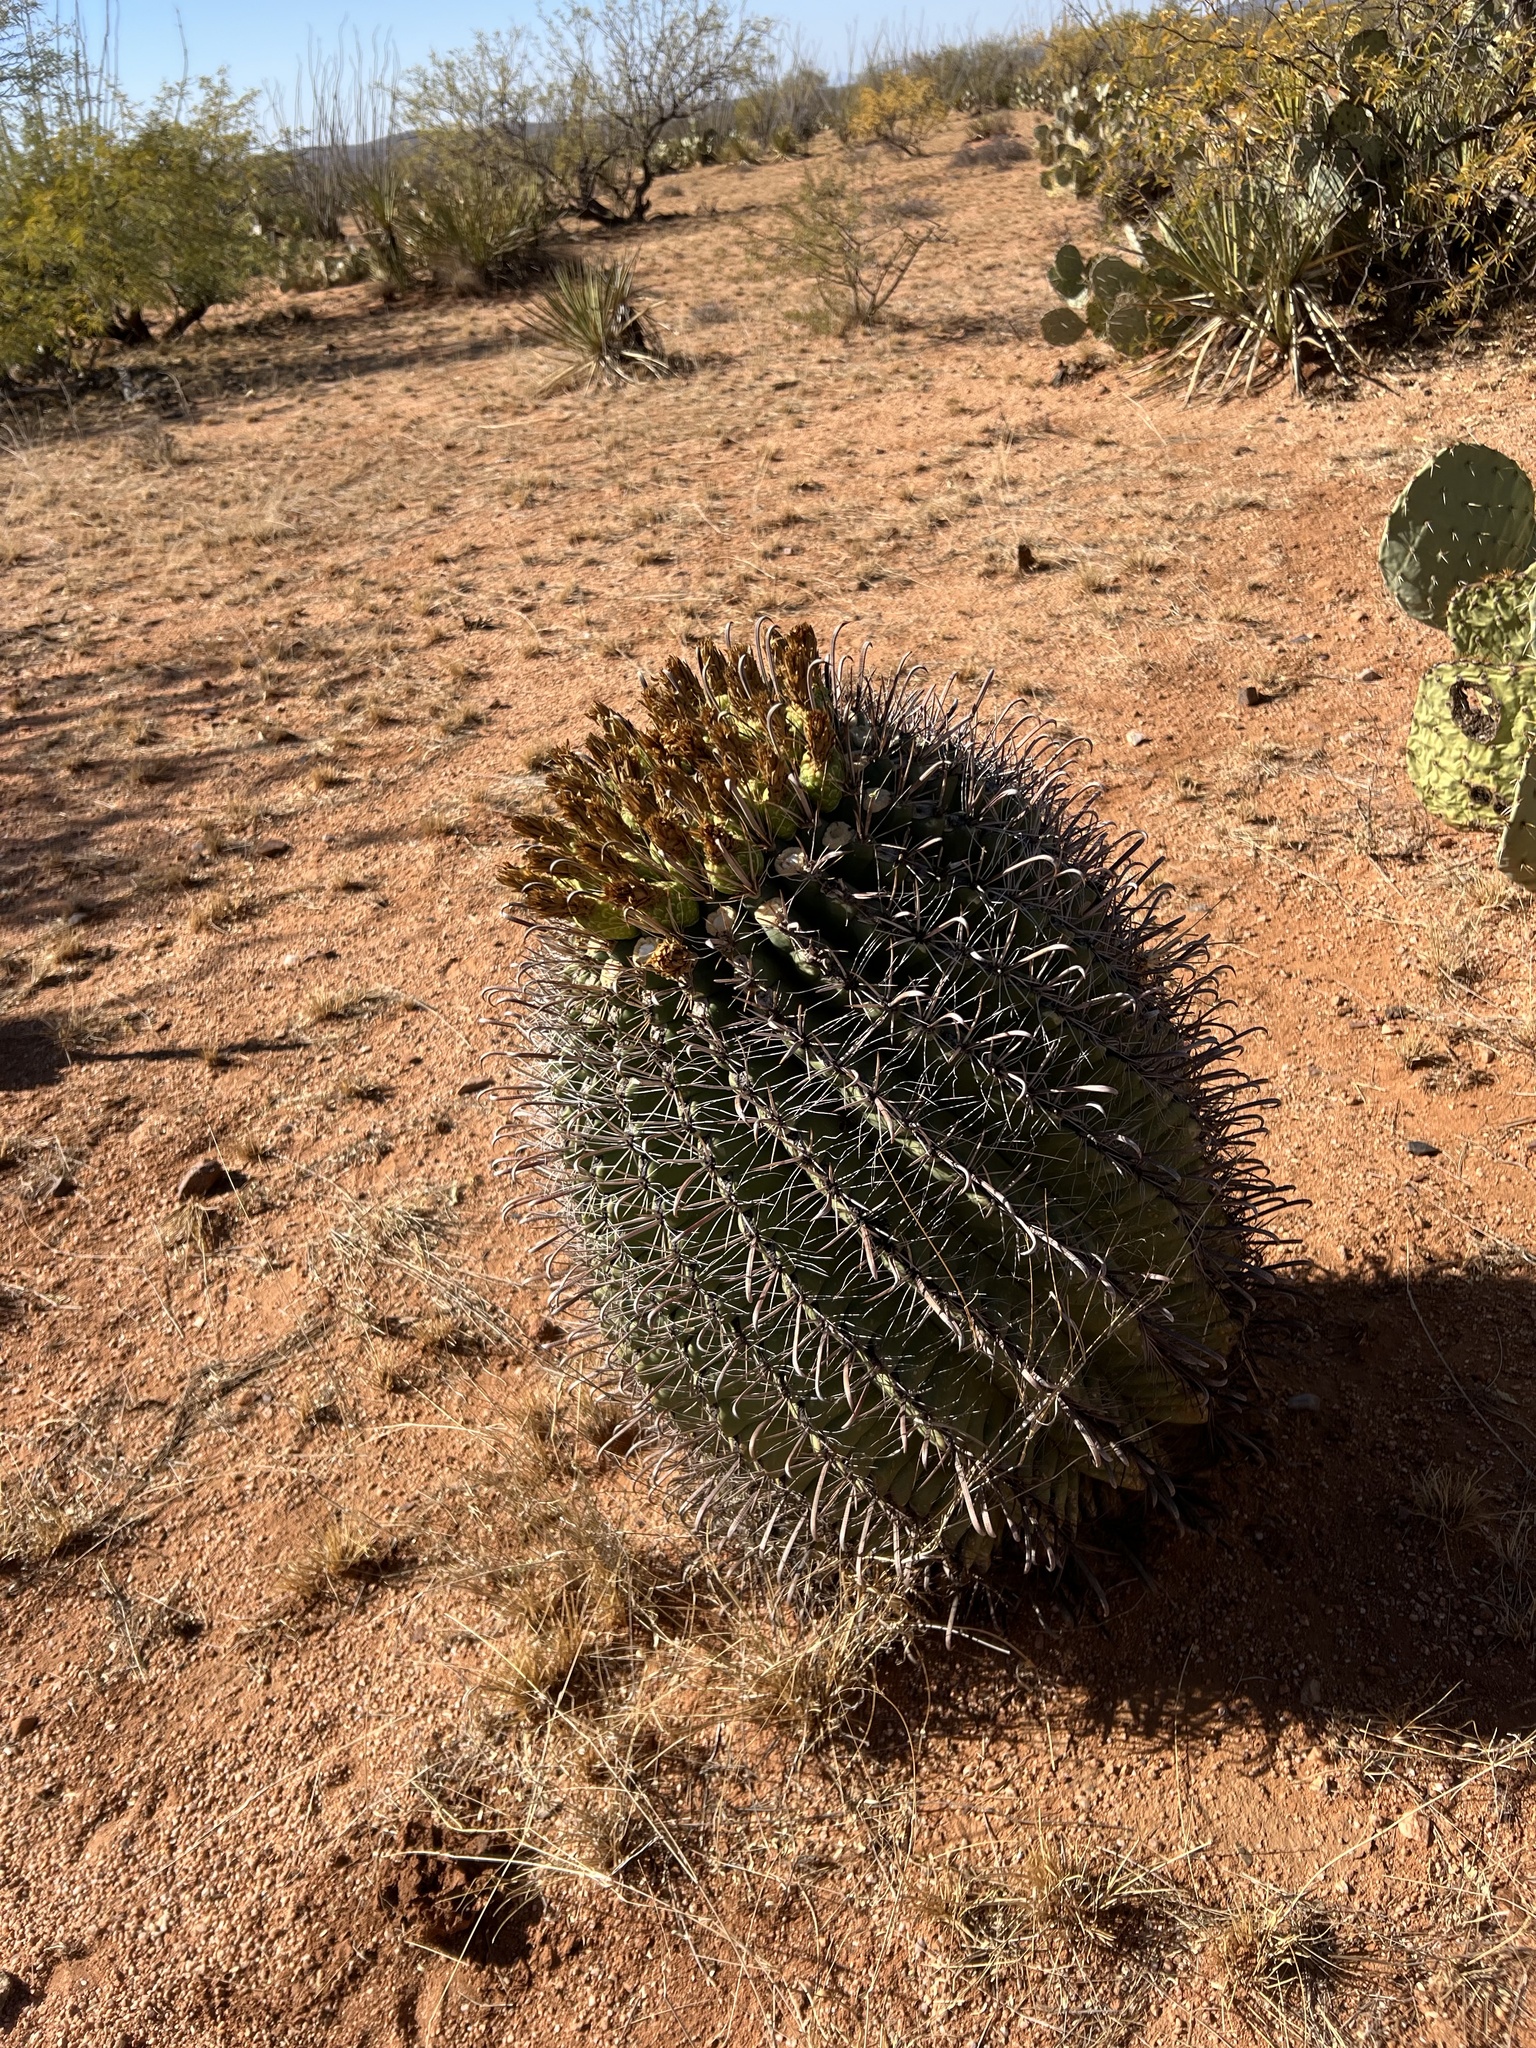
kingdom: Plantae
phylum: Tracheophyta
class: Magnoliopsida
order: Caryophyllales
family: Cactaceae
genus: Ferocactus
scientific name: Ferocactus wislizeni
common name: Candy barrel cactus
